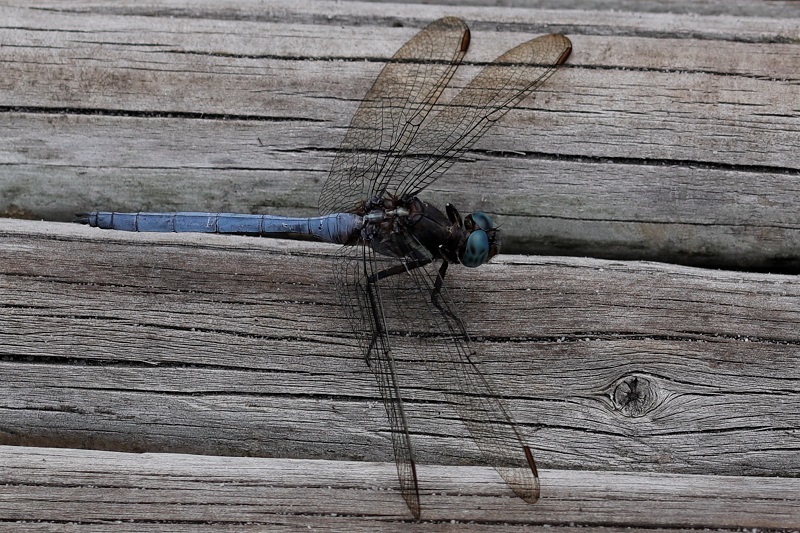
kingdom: Animalia
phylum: Arthropoda
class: Insecta
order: Odonata
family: Libellulidae
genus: Orthetrum
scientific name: Orthetrum julia
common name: Julia skimmer
